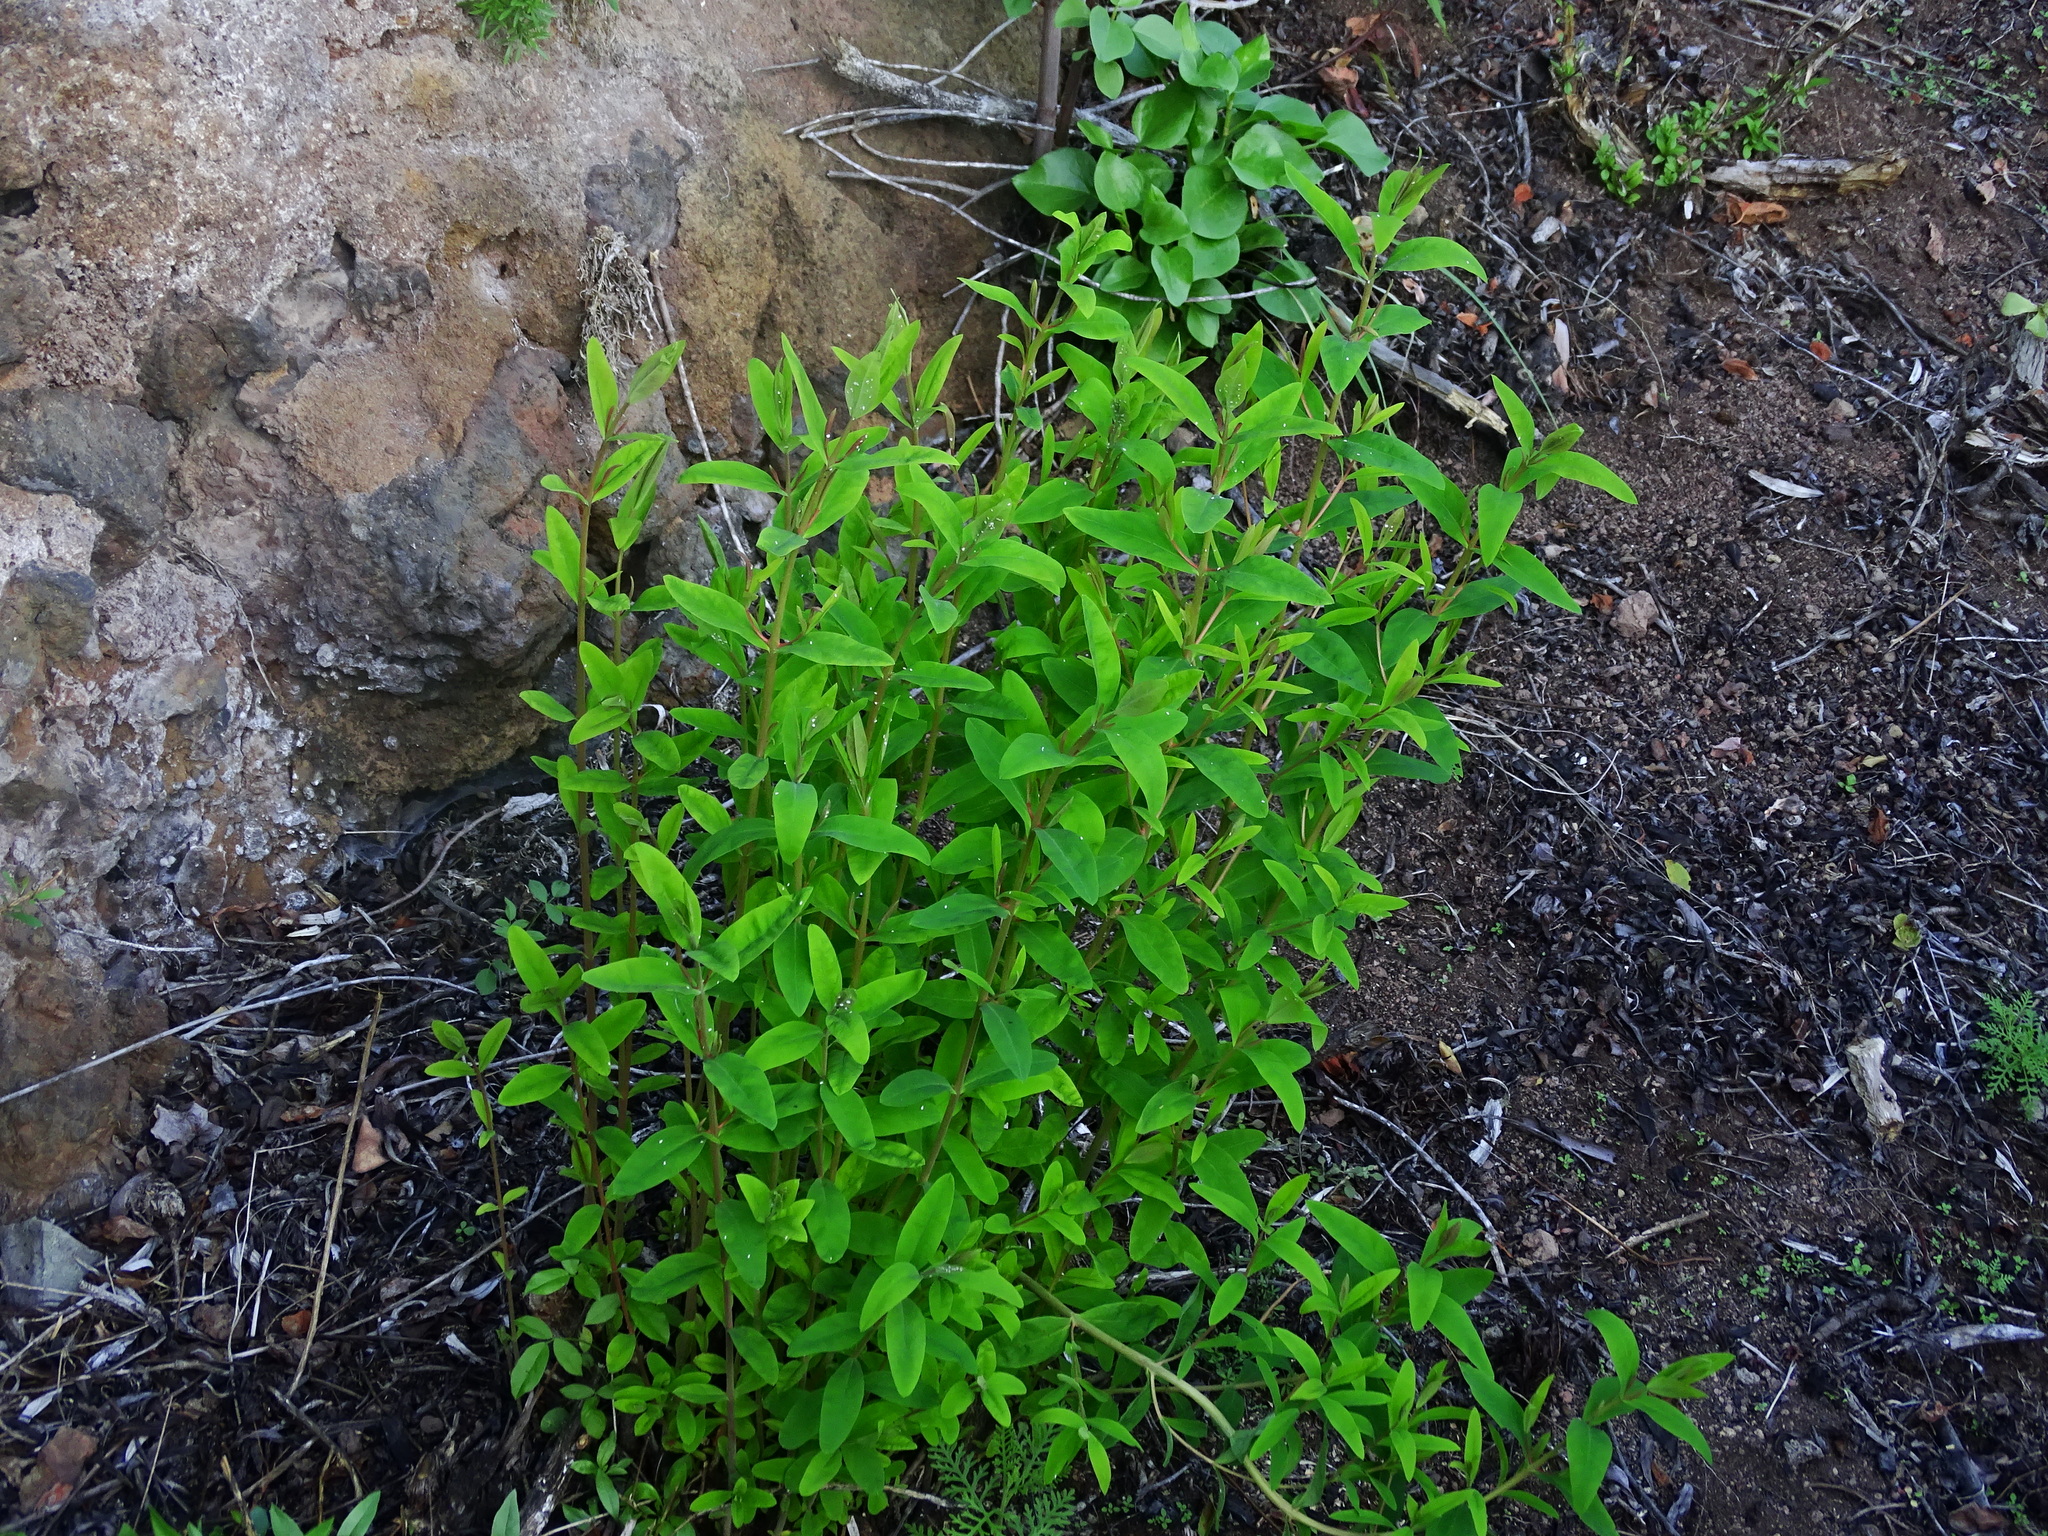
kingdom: Plantae
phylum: Tracheophyta
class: Magnoliopsida
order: Malpighiales
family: Hypericaceae
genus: Hypericum
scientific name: Hypericum canariense
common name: Canary island st. johnswort
